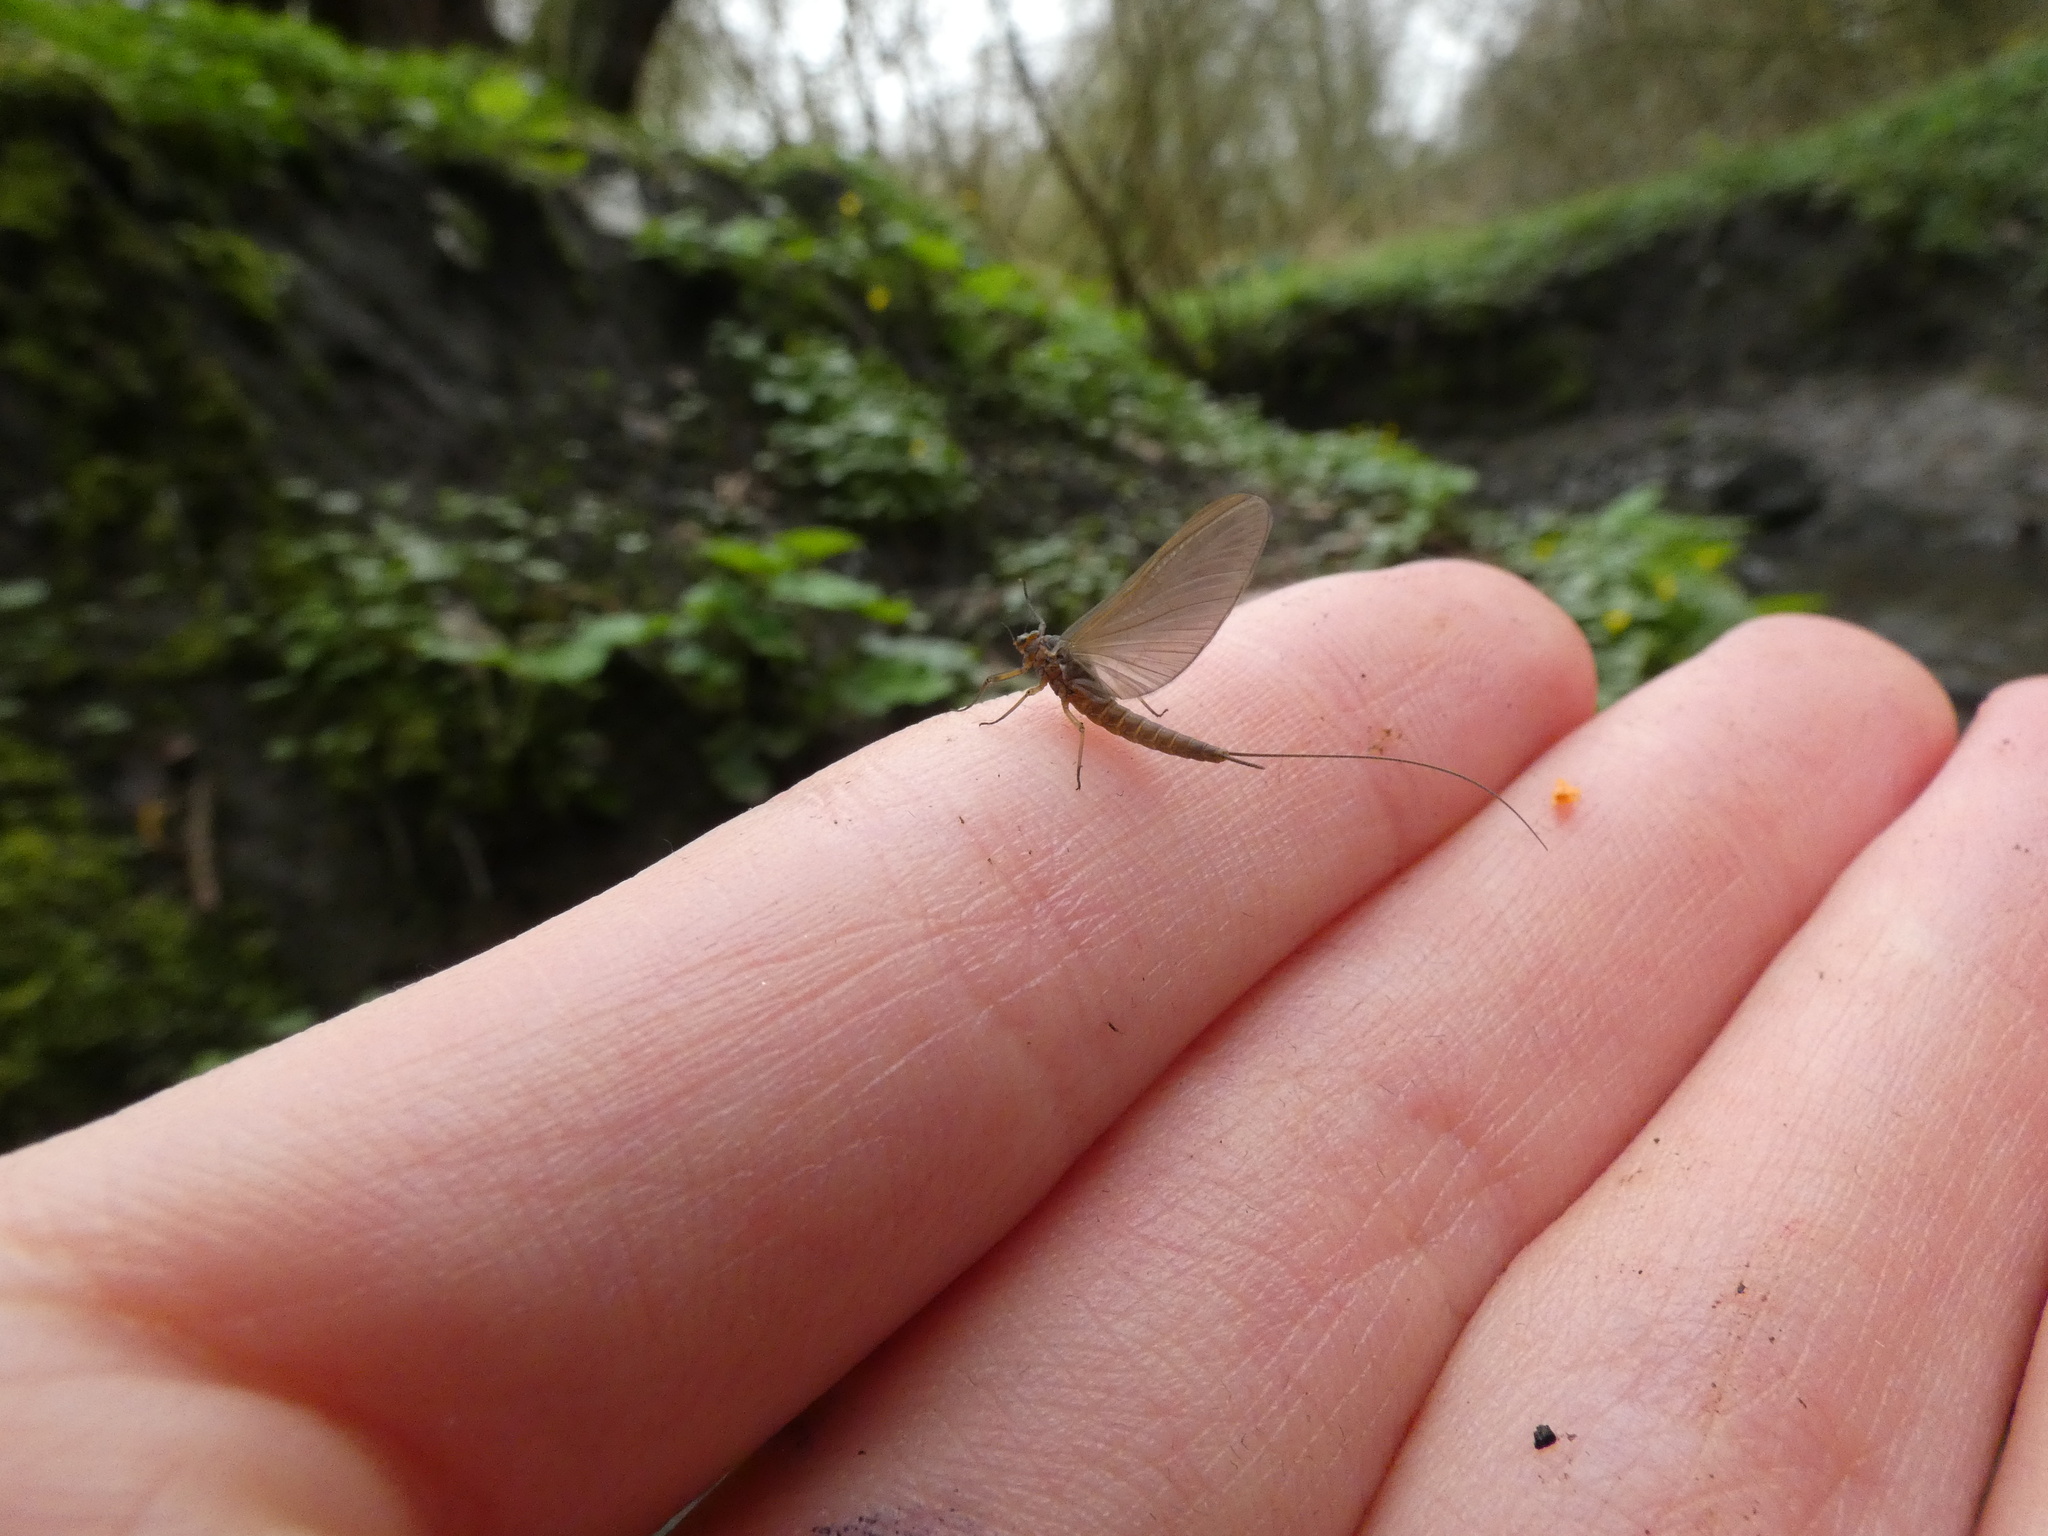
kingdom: Animalia
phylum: Arthropoda
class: Insecta
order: Ephemeroptera
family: Baetidae
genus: Baetis
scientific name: Baetis rhodani
